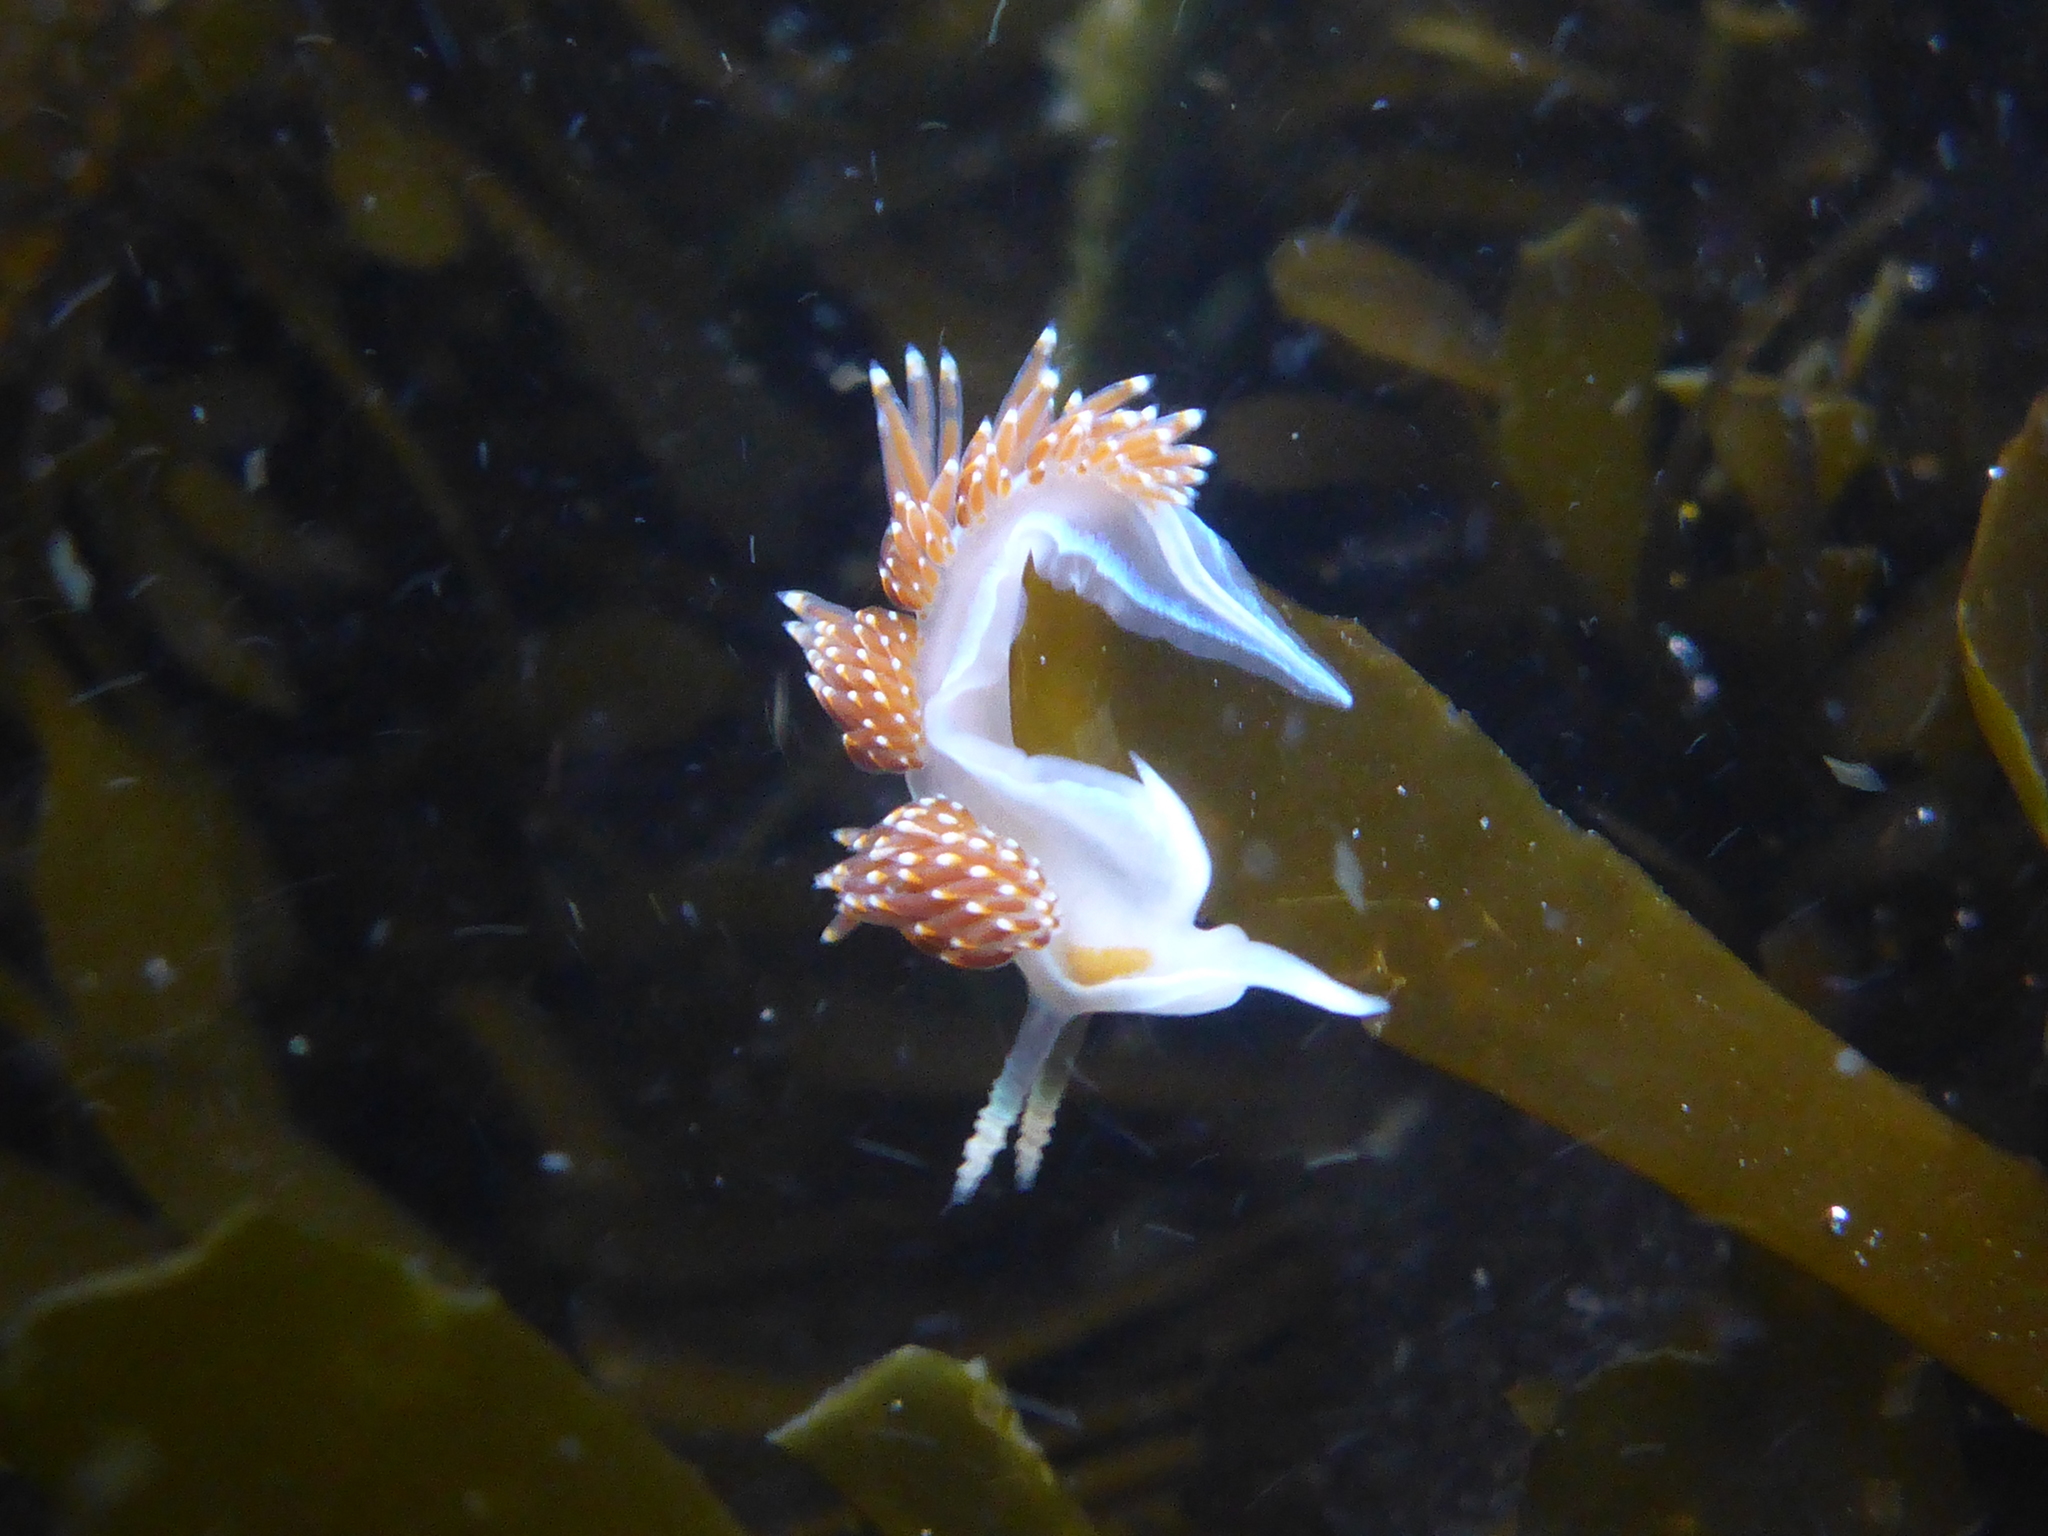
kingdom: Animalia
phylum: Mollusca
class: Gastropoda
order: Nudibranchia
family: Myrrhinidae
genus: Hermissenda
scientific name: Hermissenda opalescens
